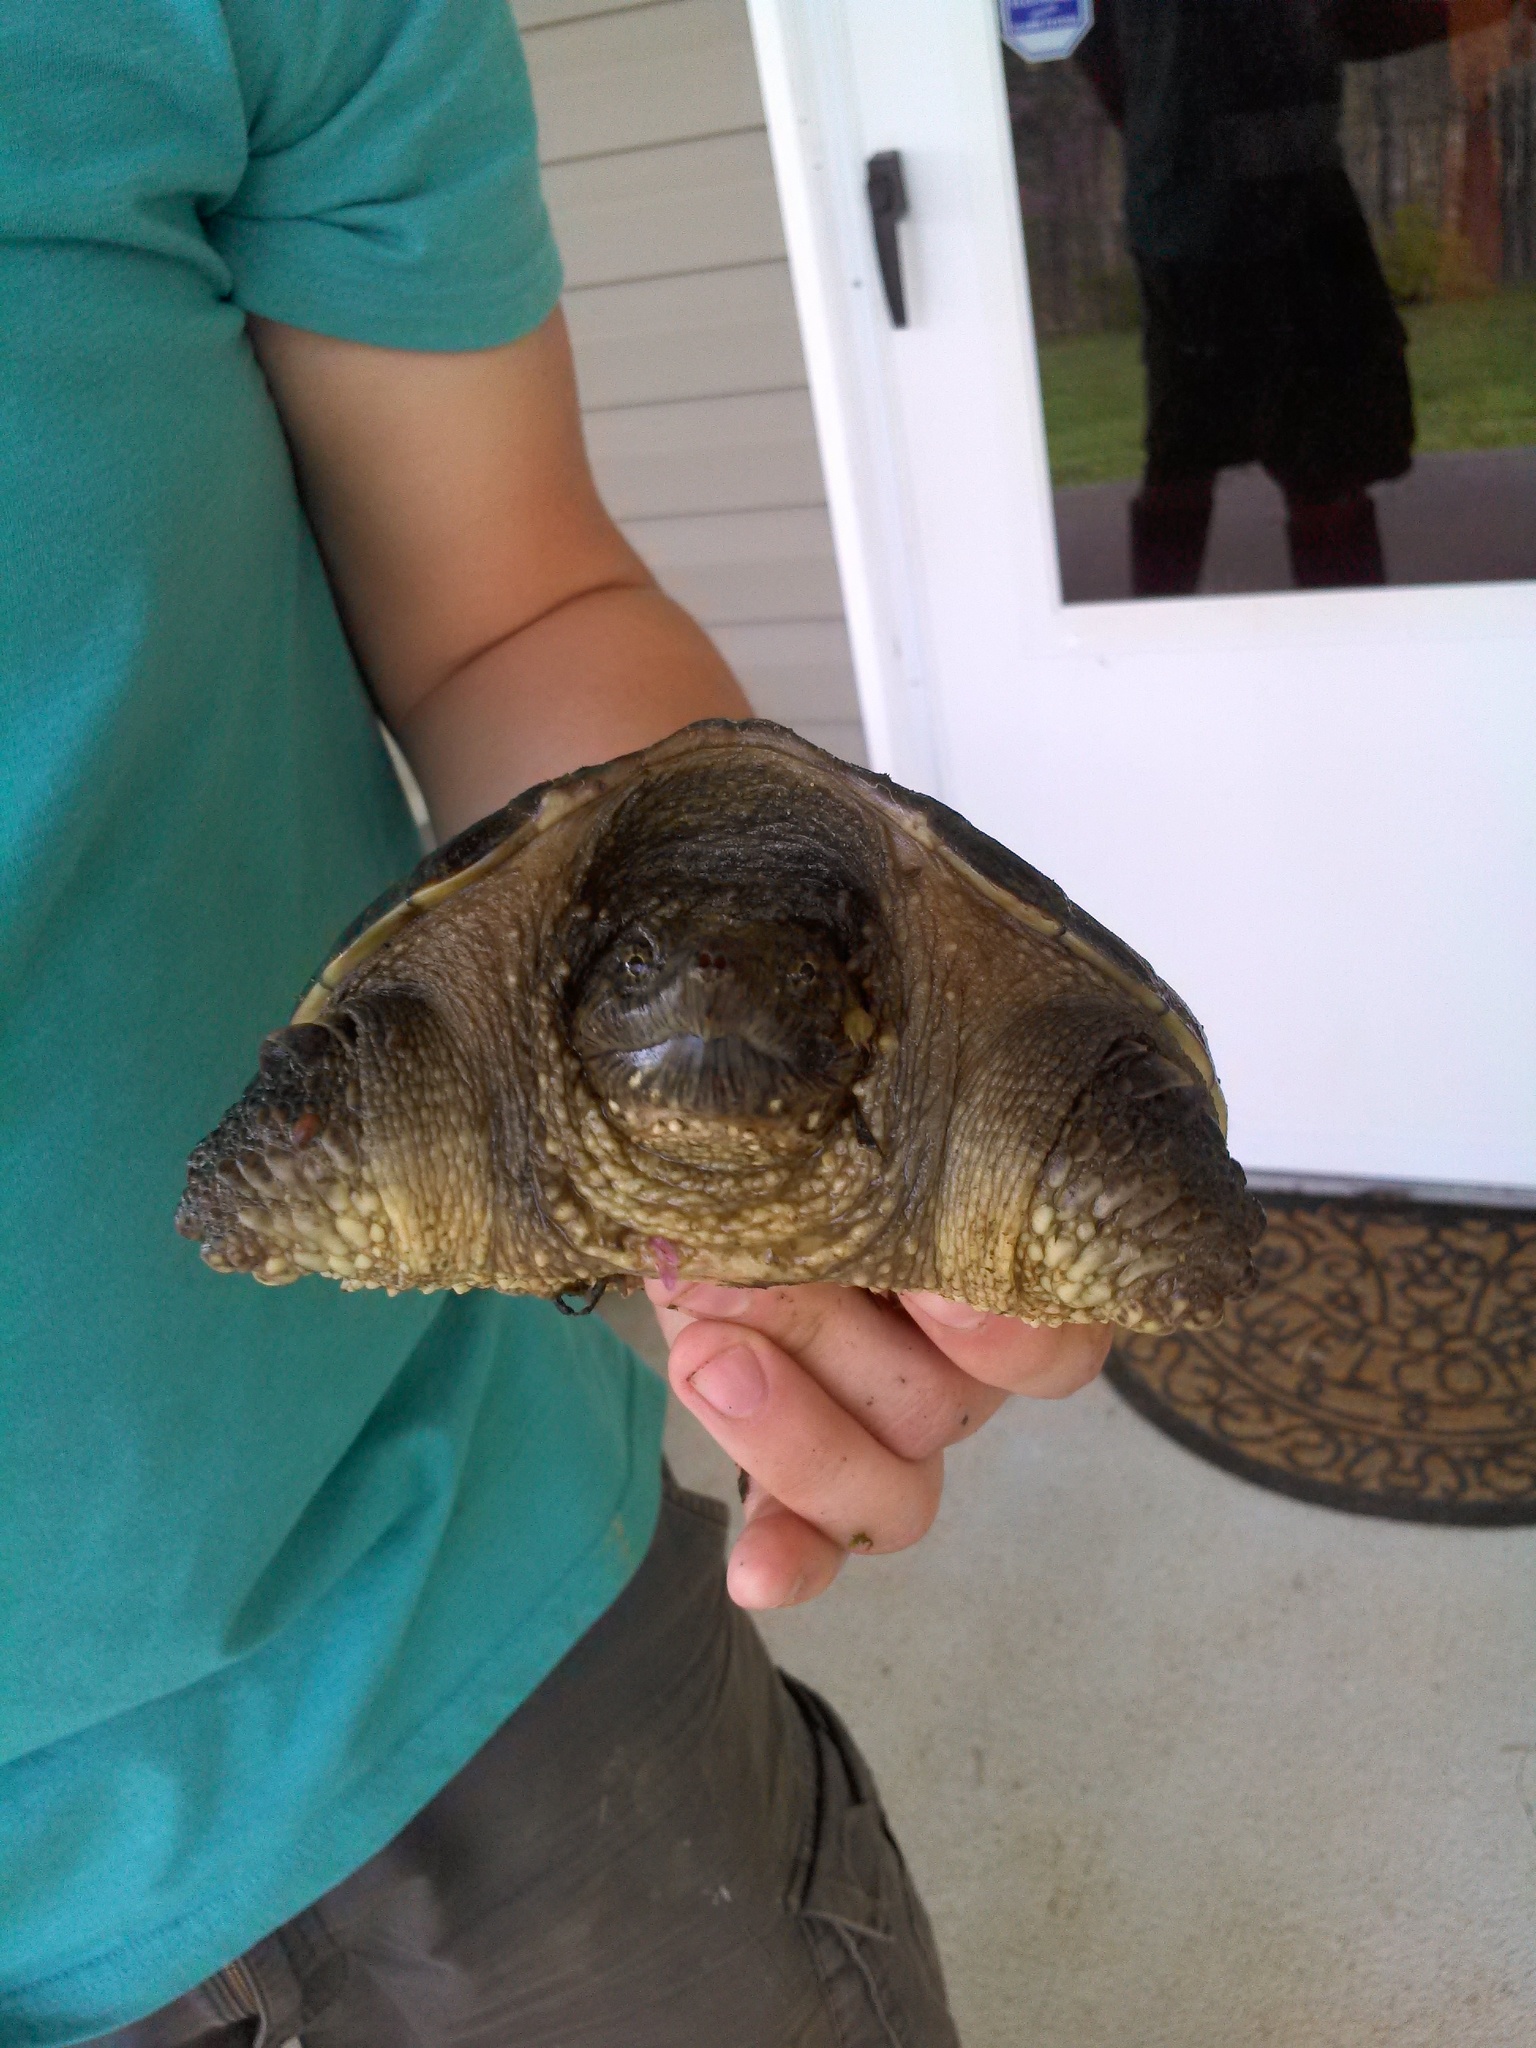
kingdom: Animalia
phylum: Chordata
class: Testudines
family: Chelydridae
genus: Chelydra
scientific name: Chelydra serpentina
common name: Common snapping turtle
